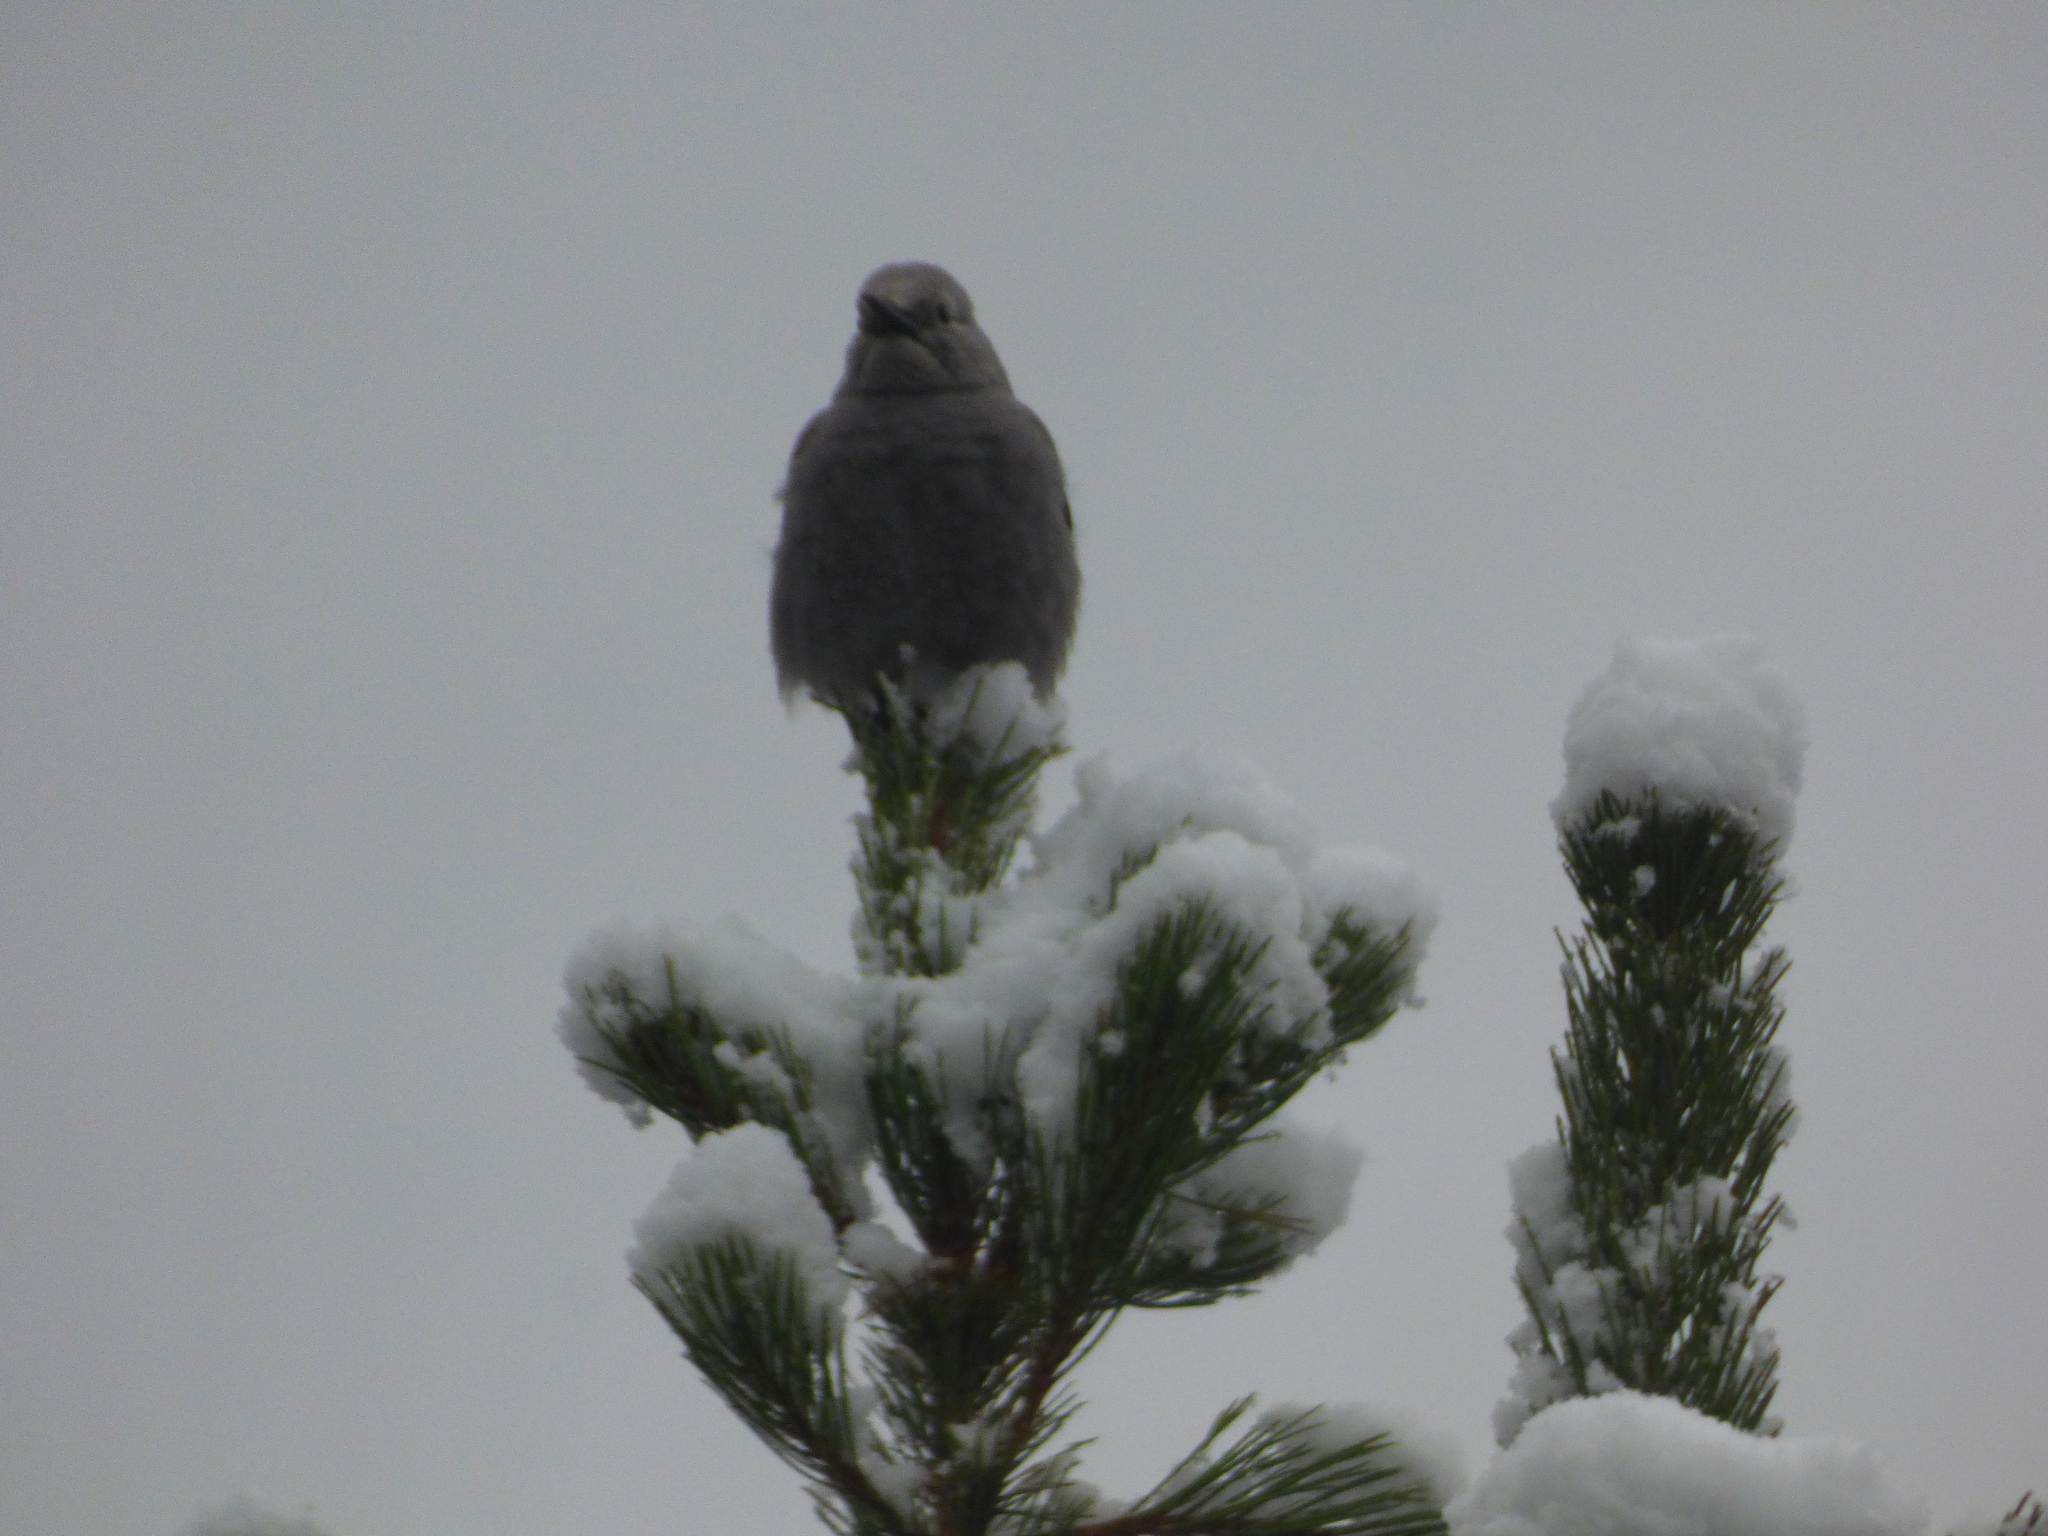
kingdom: Animalia
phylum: Chordata
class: Aves
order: Passeriformes
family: Corvidae
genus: Nucifraga
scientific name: Nucifraga columbiana
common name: Clark's nutcracker
